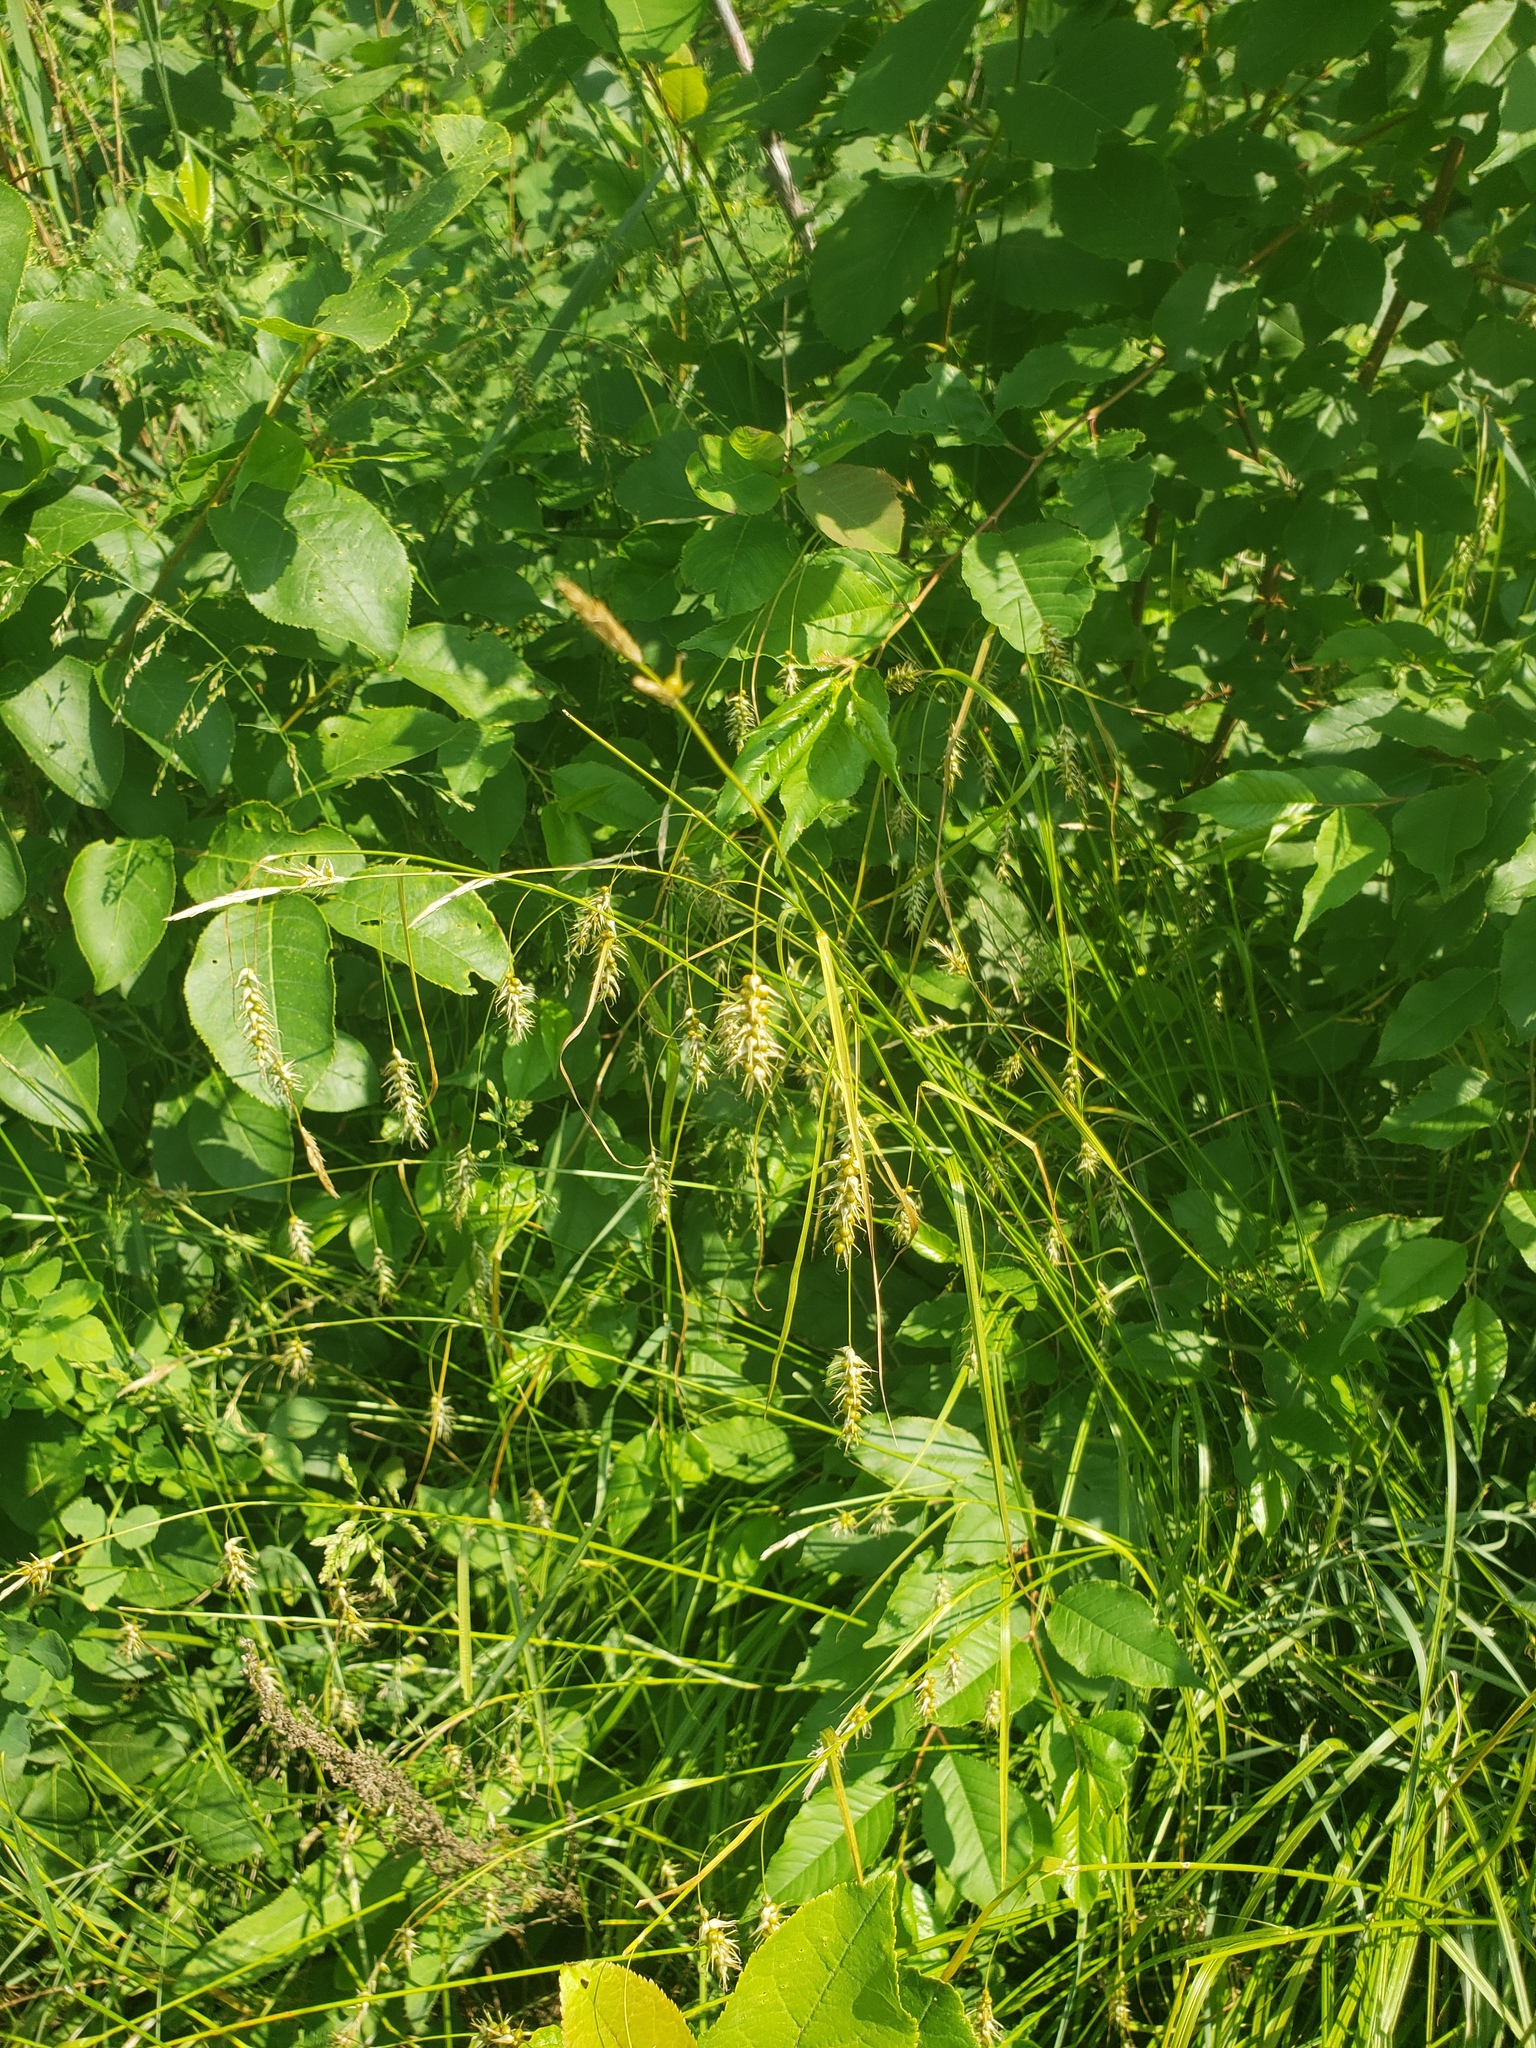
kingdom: Plantae
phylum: Tracheophyta
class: Liliopsida
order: Poales
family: Cyperaceae
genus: Carex
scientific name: Carex sprengelii
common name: Long-beaked sedge
